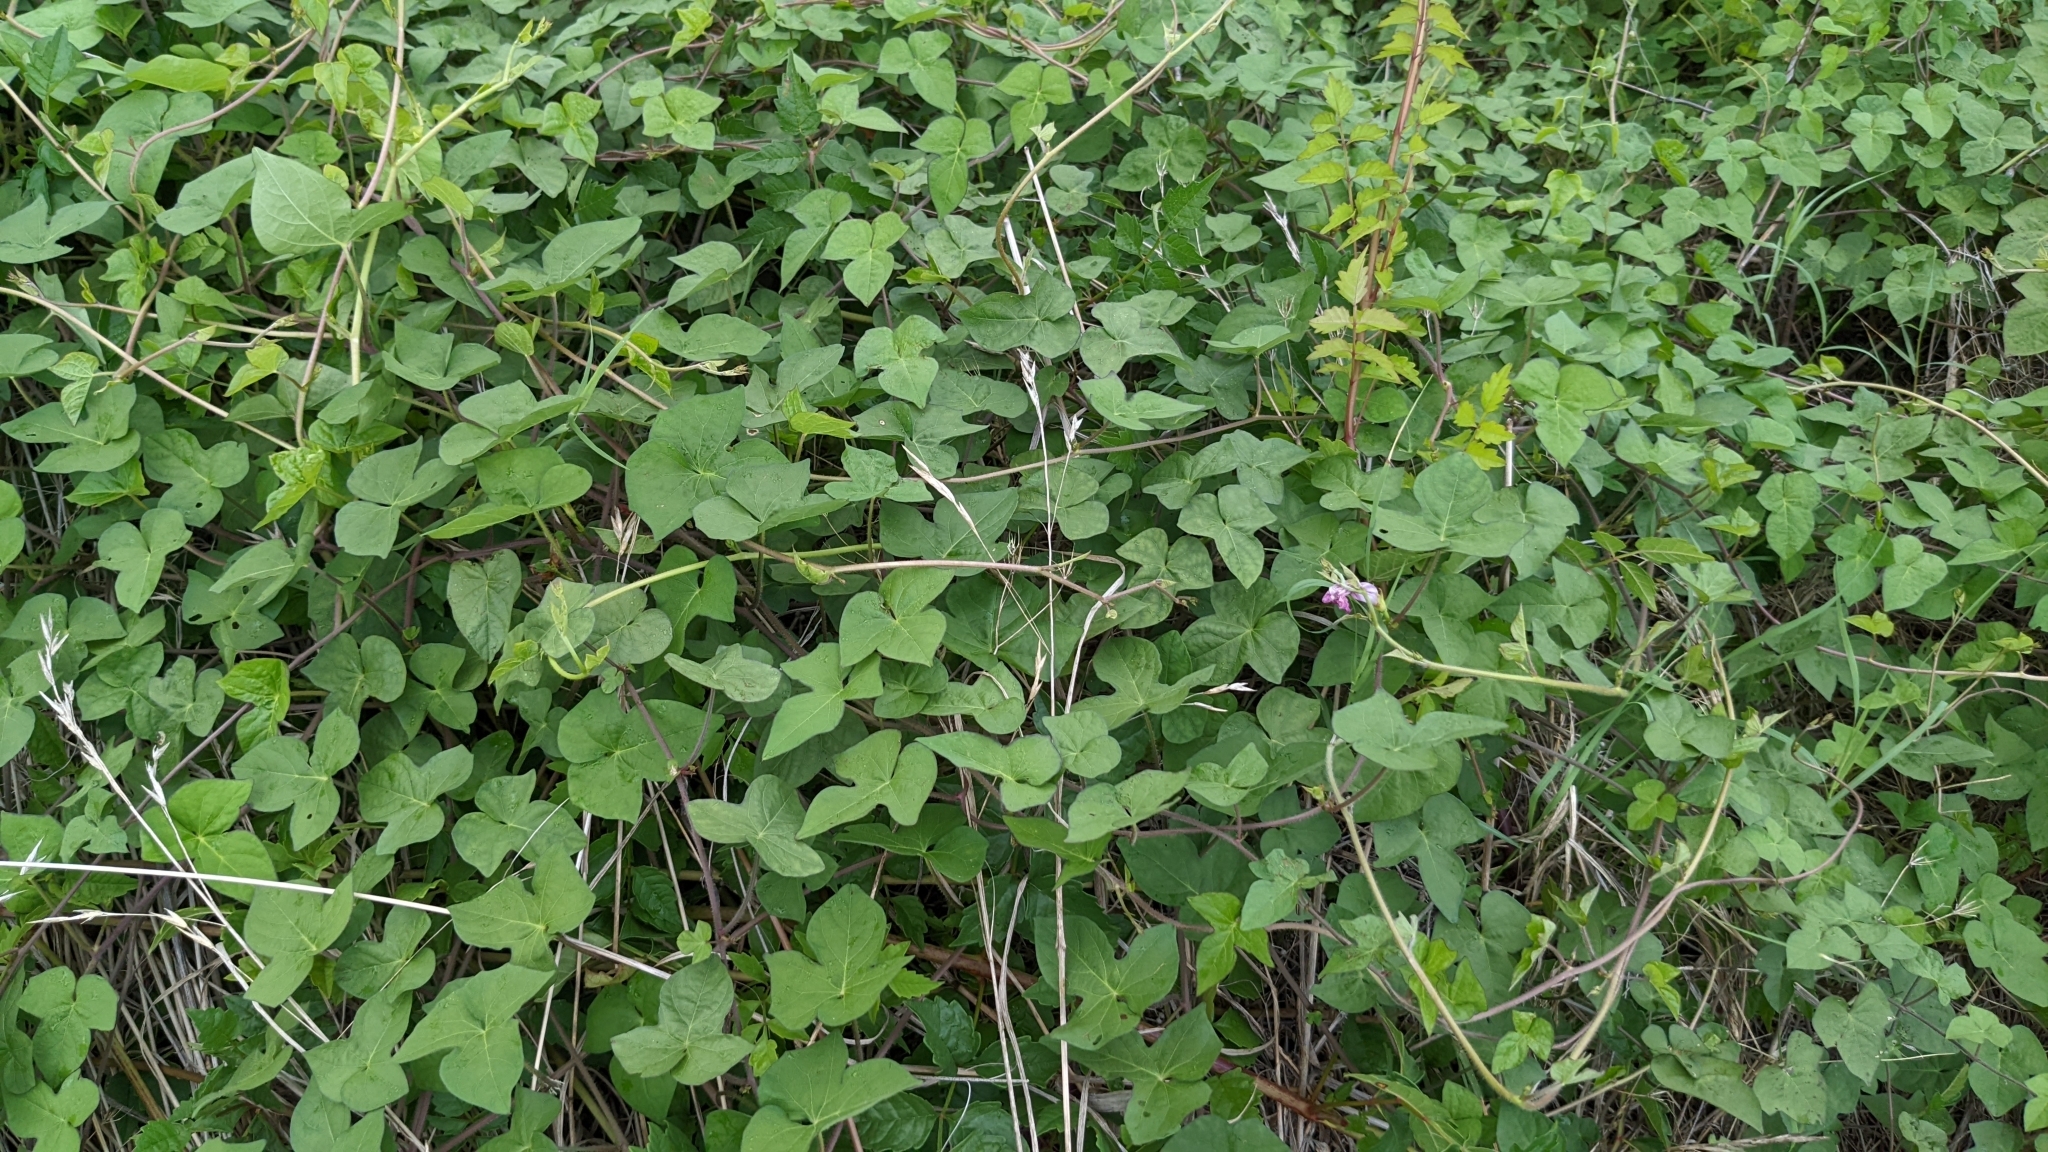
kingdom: Plantae
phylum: Tracheophyta
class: Magnoliopsida
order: Solanales
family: Convolvulaceae
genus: Ipomoea
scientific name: Ipomoea cordatotriloba
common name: Cotton morning glory
